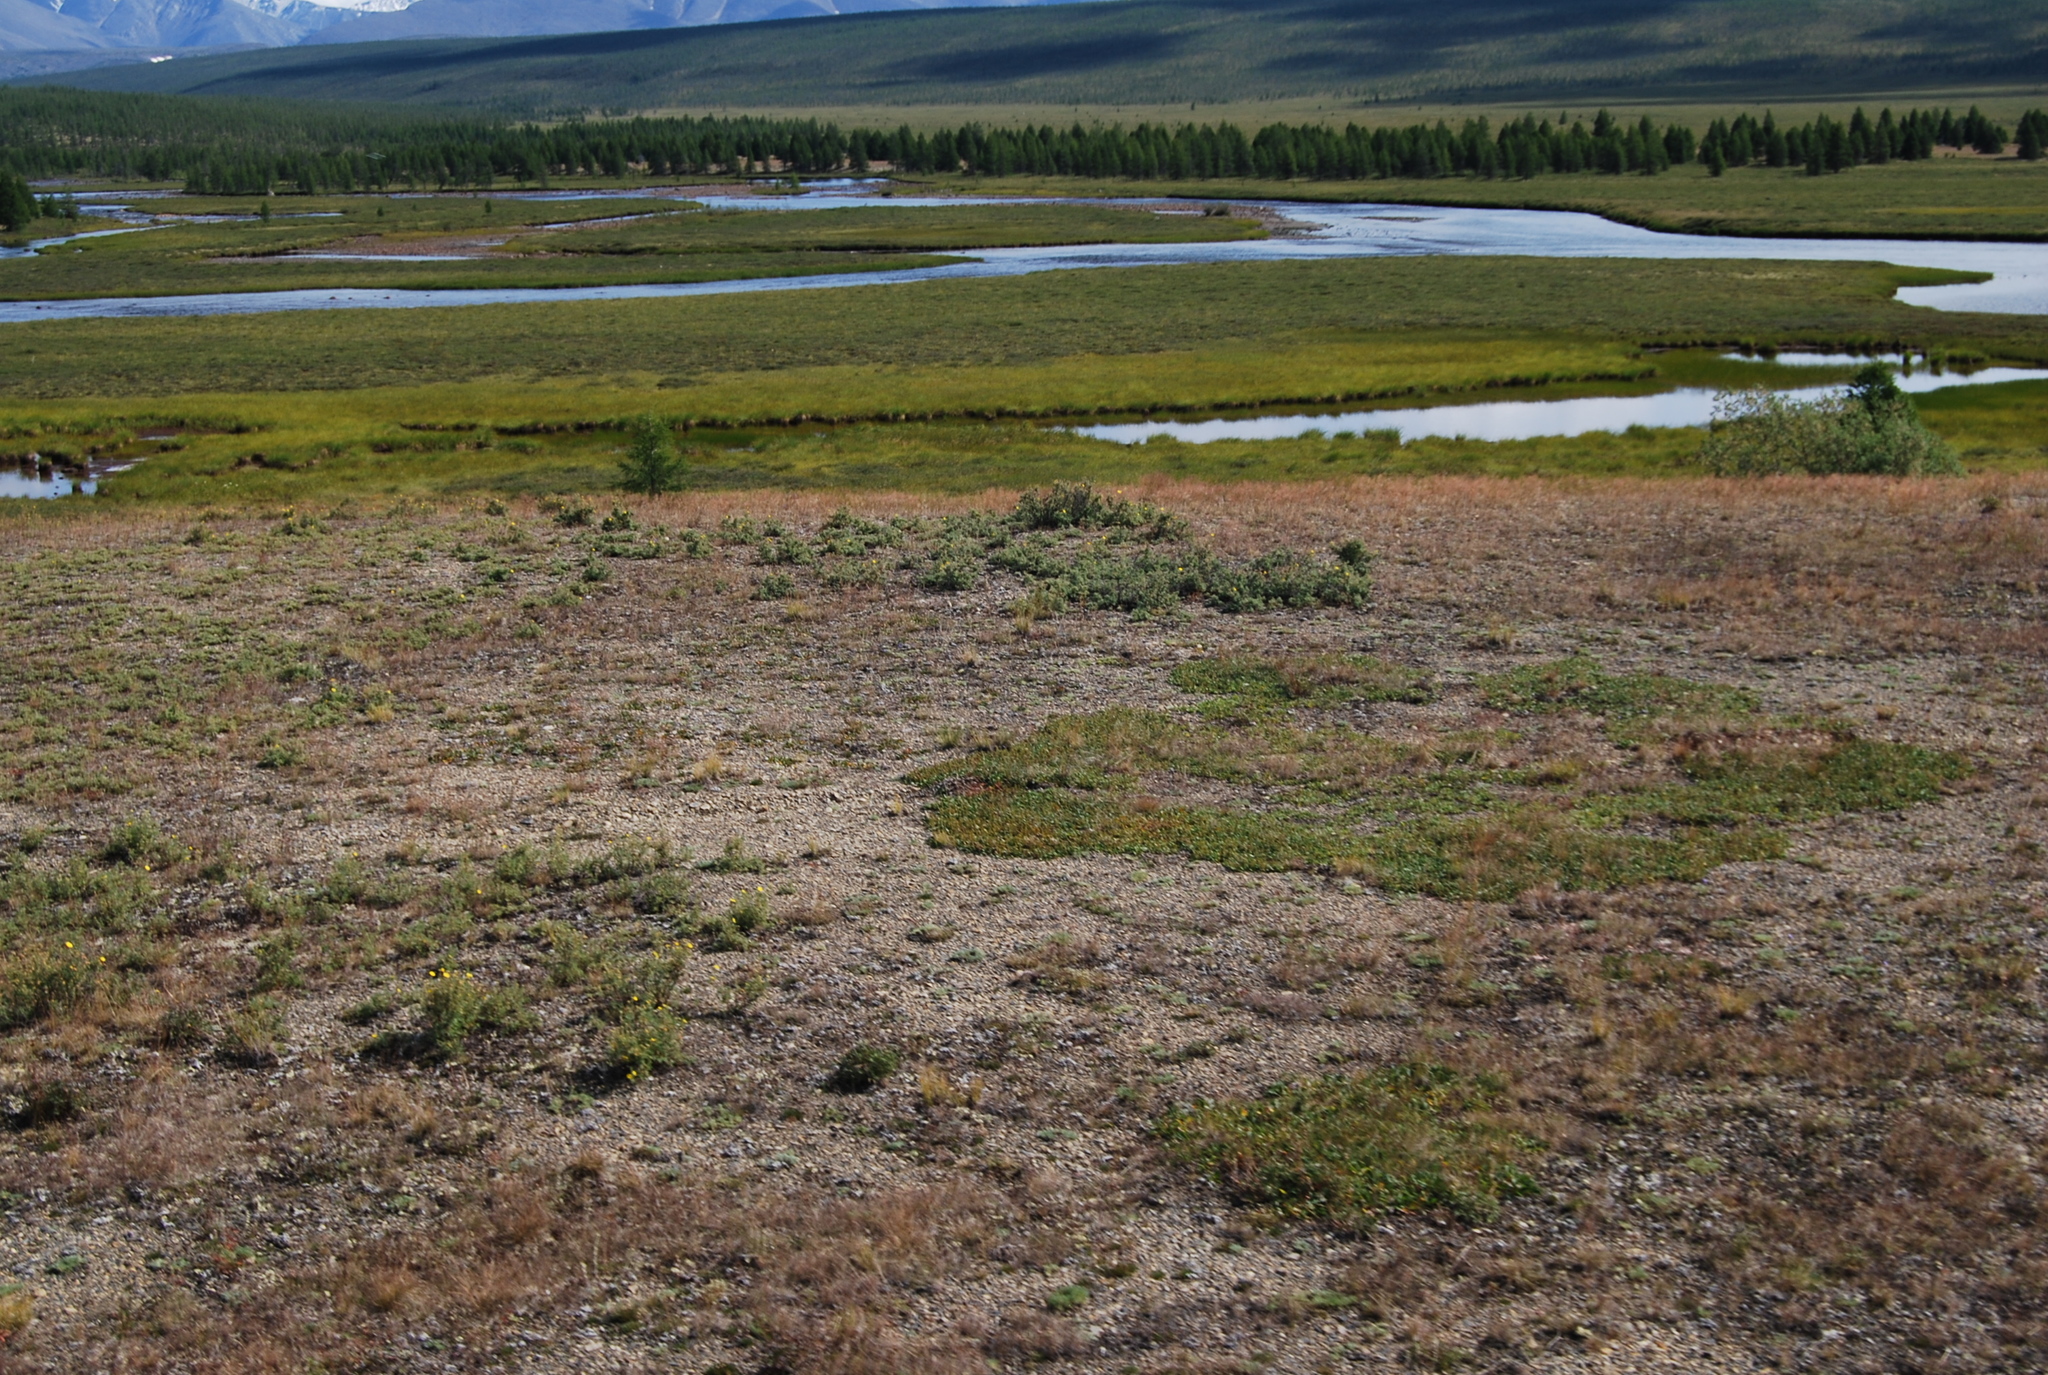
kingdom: Plantae
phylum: Tracheophyta
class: Magnoliopsida
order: Fabales
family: Fabaceae
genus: Oxytropis
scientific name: Oxytropis susumanica
